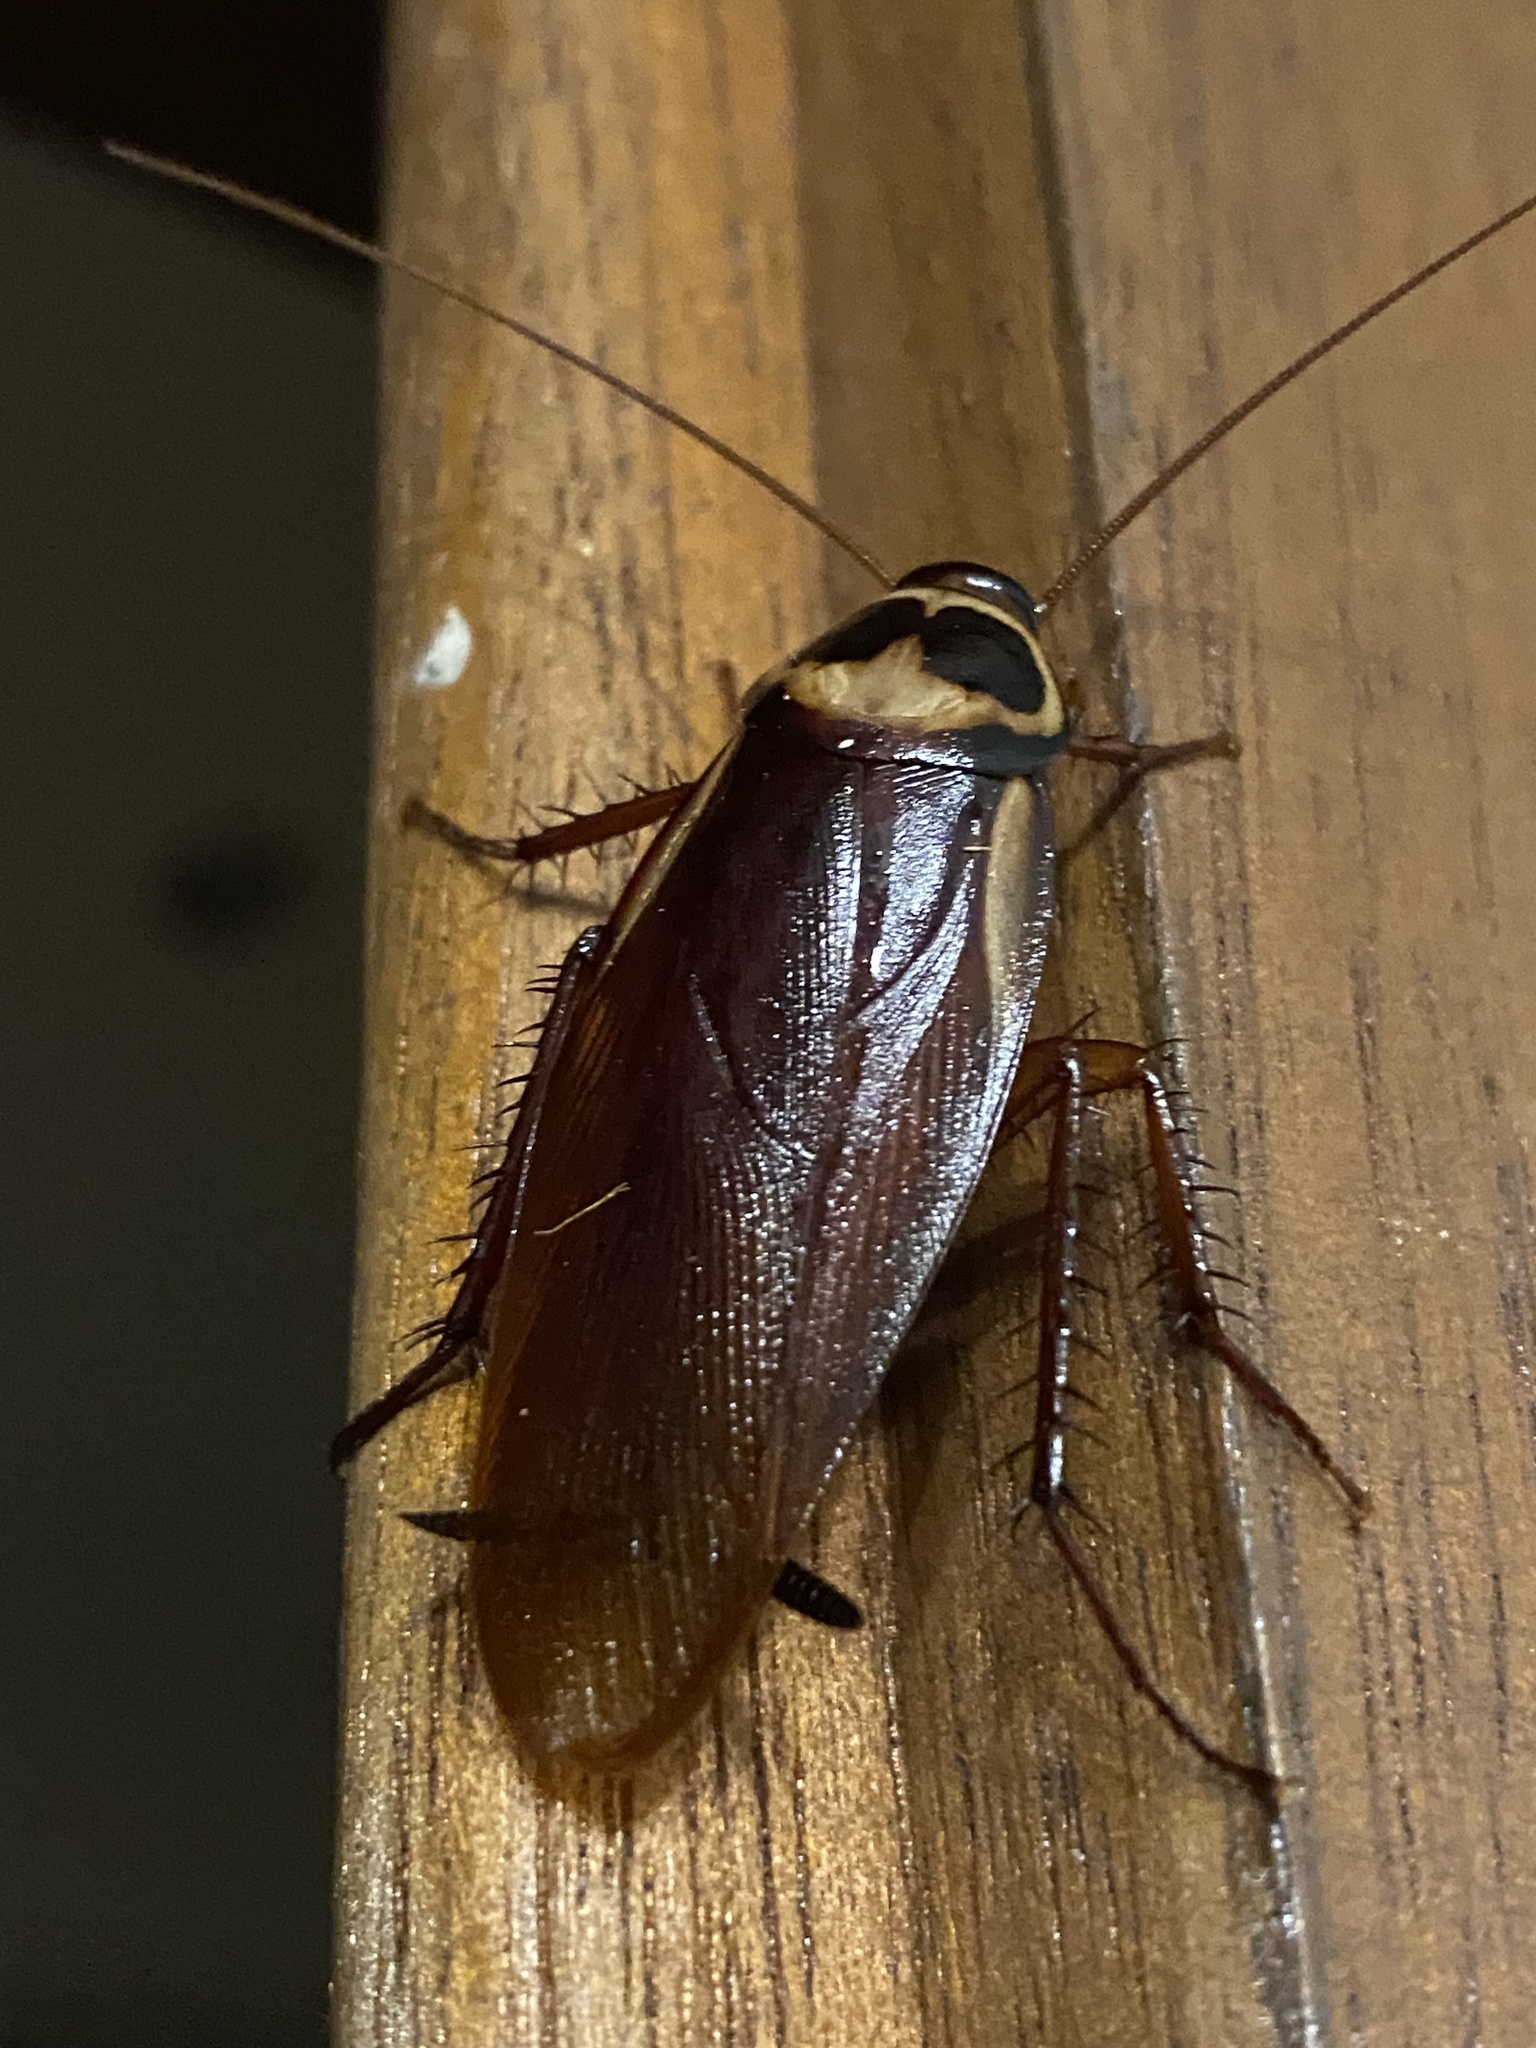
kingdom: Animalia
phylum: Arthropoda
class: Insecta
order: Blattodea
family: Blattidae
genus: Periplaneta
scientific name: Periplaneta australasiae
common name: Australian cockroach
